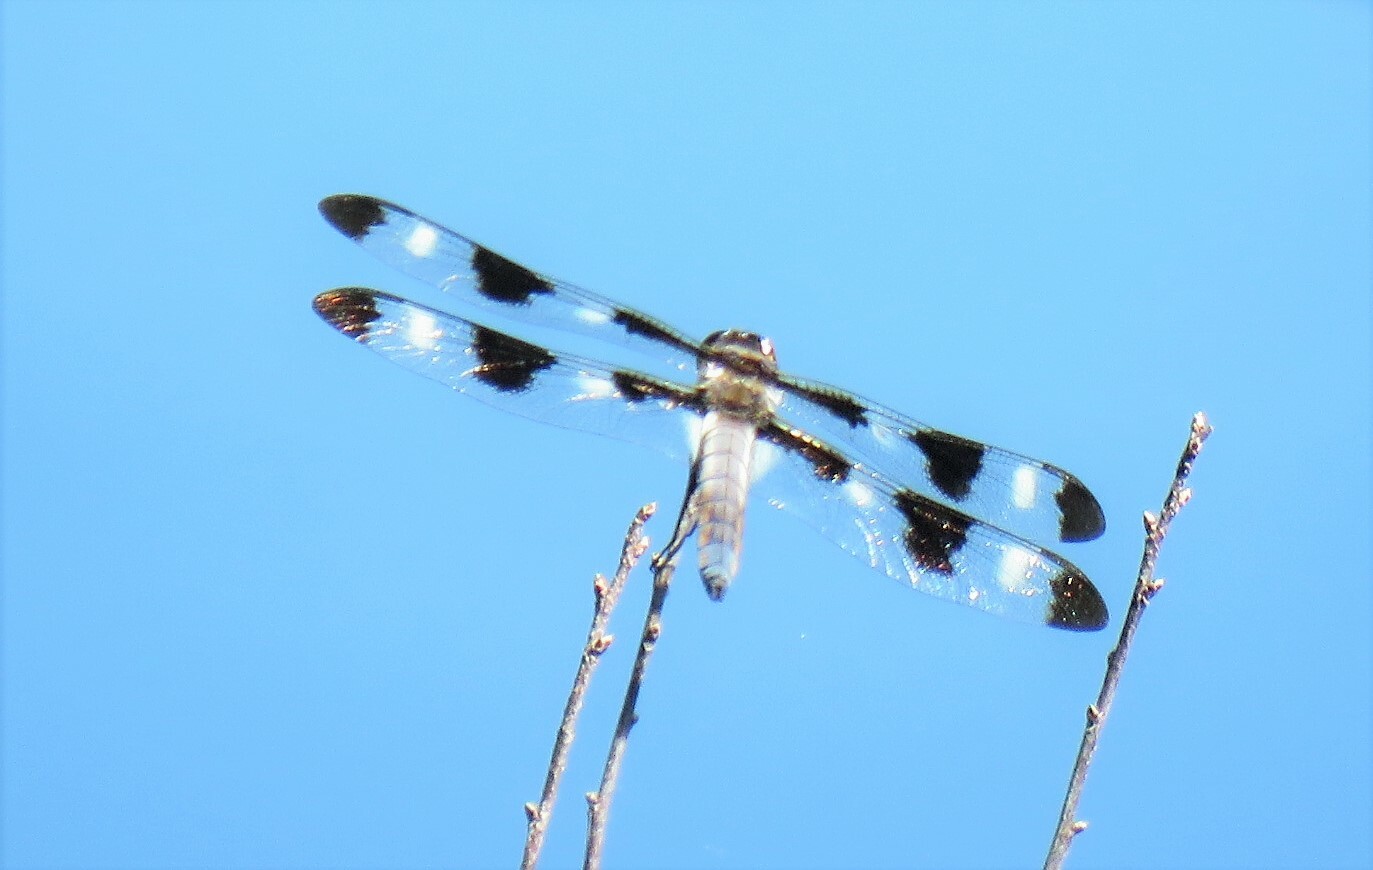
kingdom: Animalia
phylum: Arthropoda
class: Insecta
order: Odonata
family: Libellulidae
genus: Libellula
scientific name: Libellula pulchella
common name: Twelve-spotted skimmer
